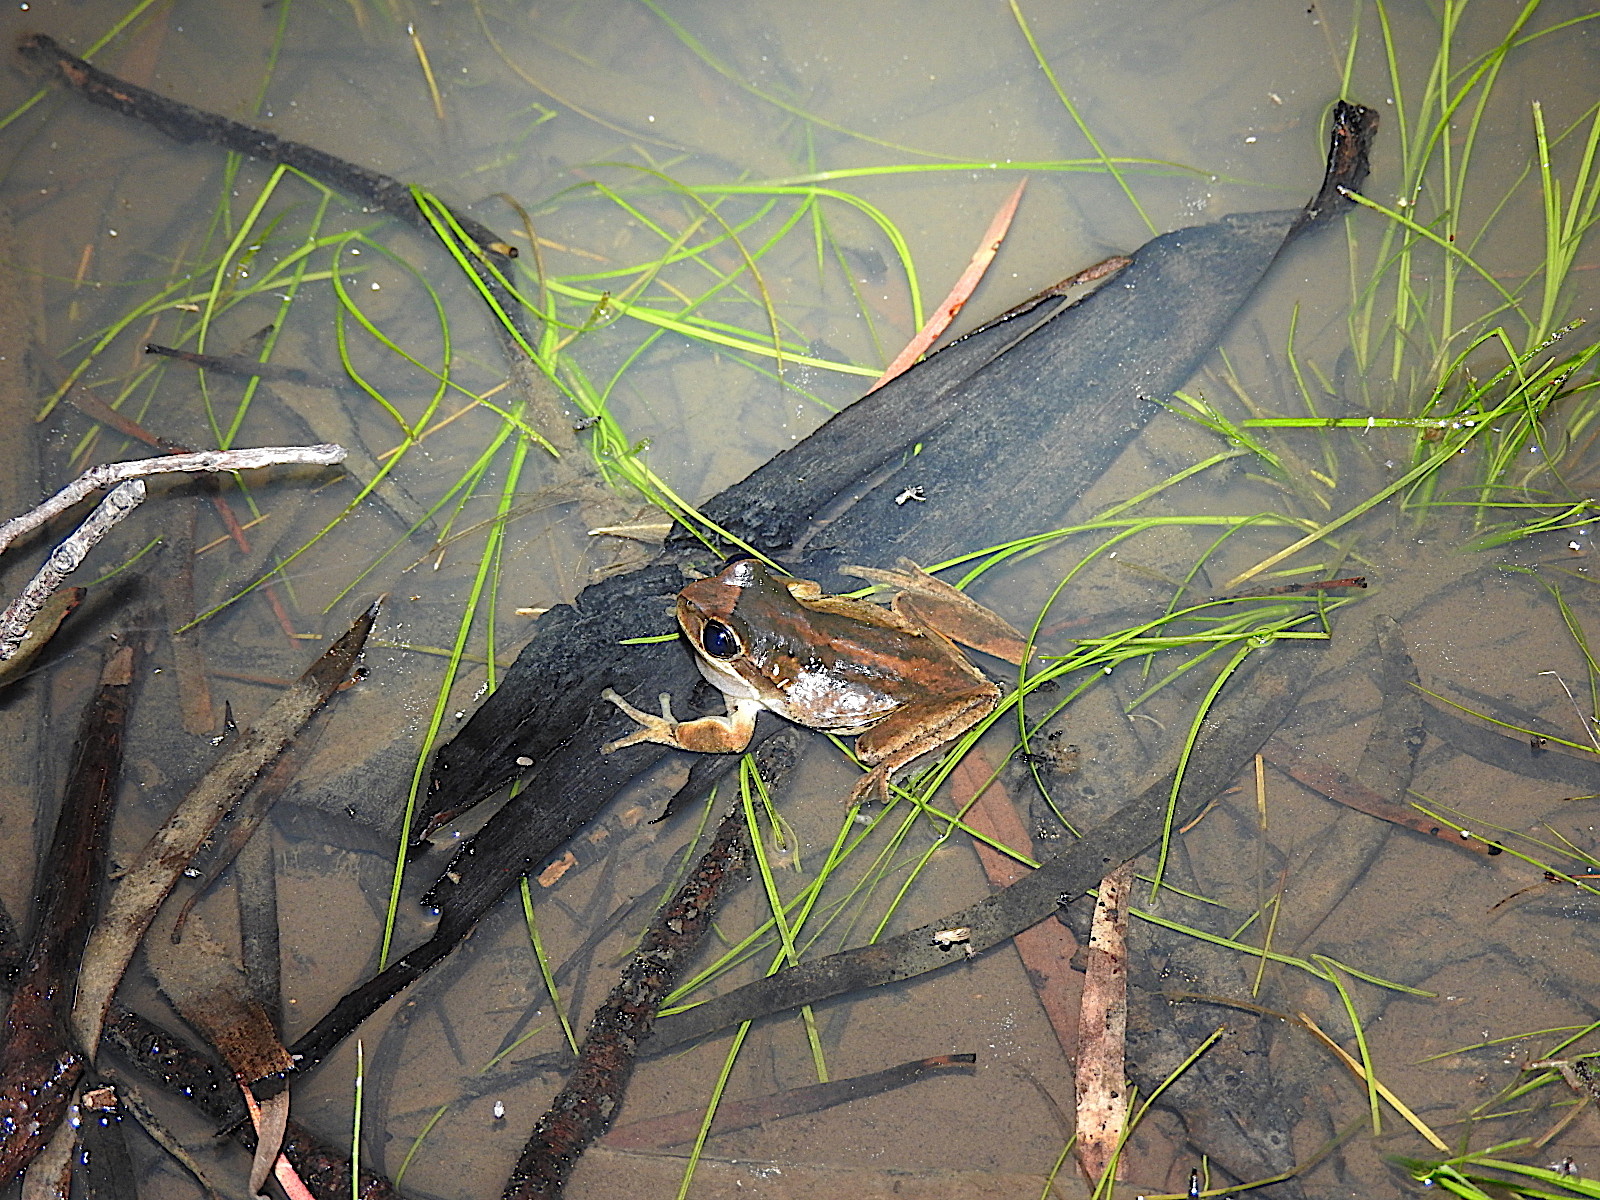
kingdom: Animalia
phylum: Chordata
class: Amphibia
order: Anura
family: Pelodryadidae
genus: Litoria
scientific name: Litoria ewingii
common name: Southern brown tree frog
